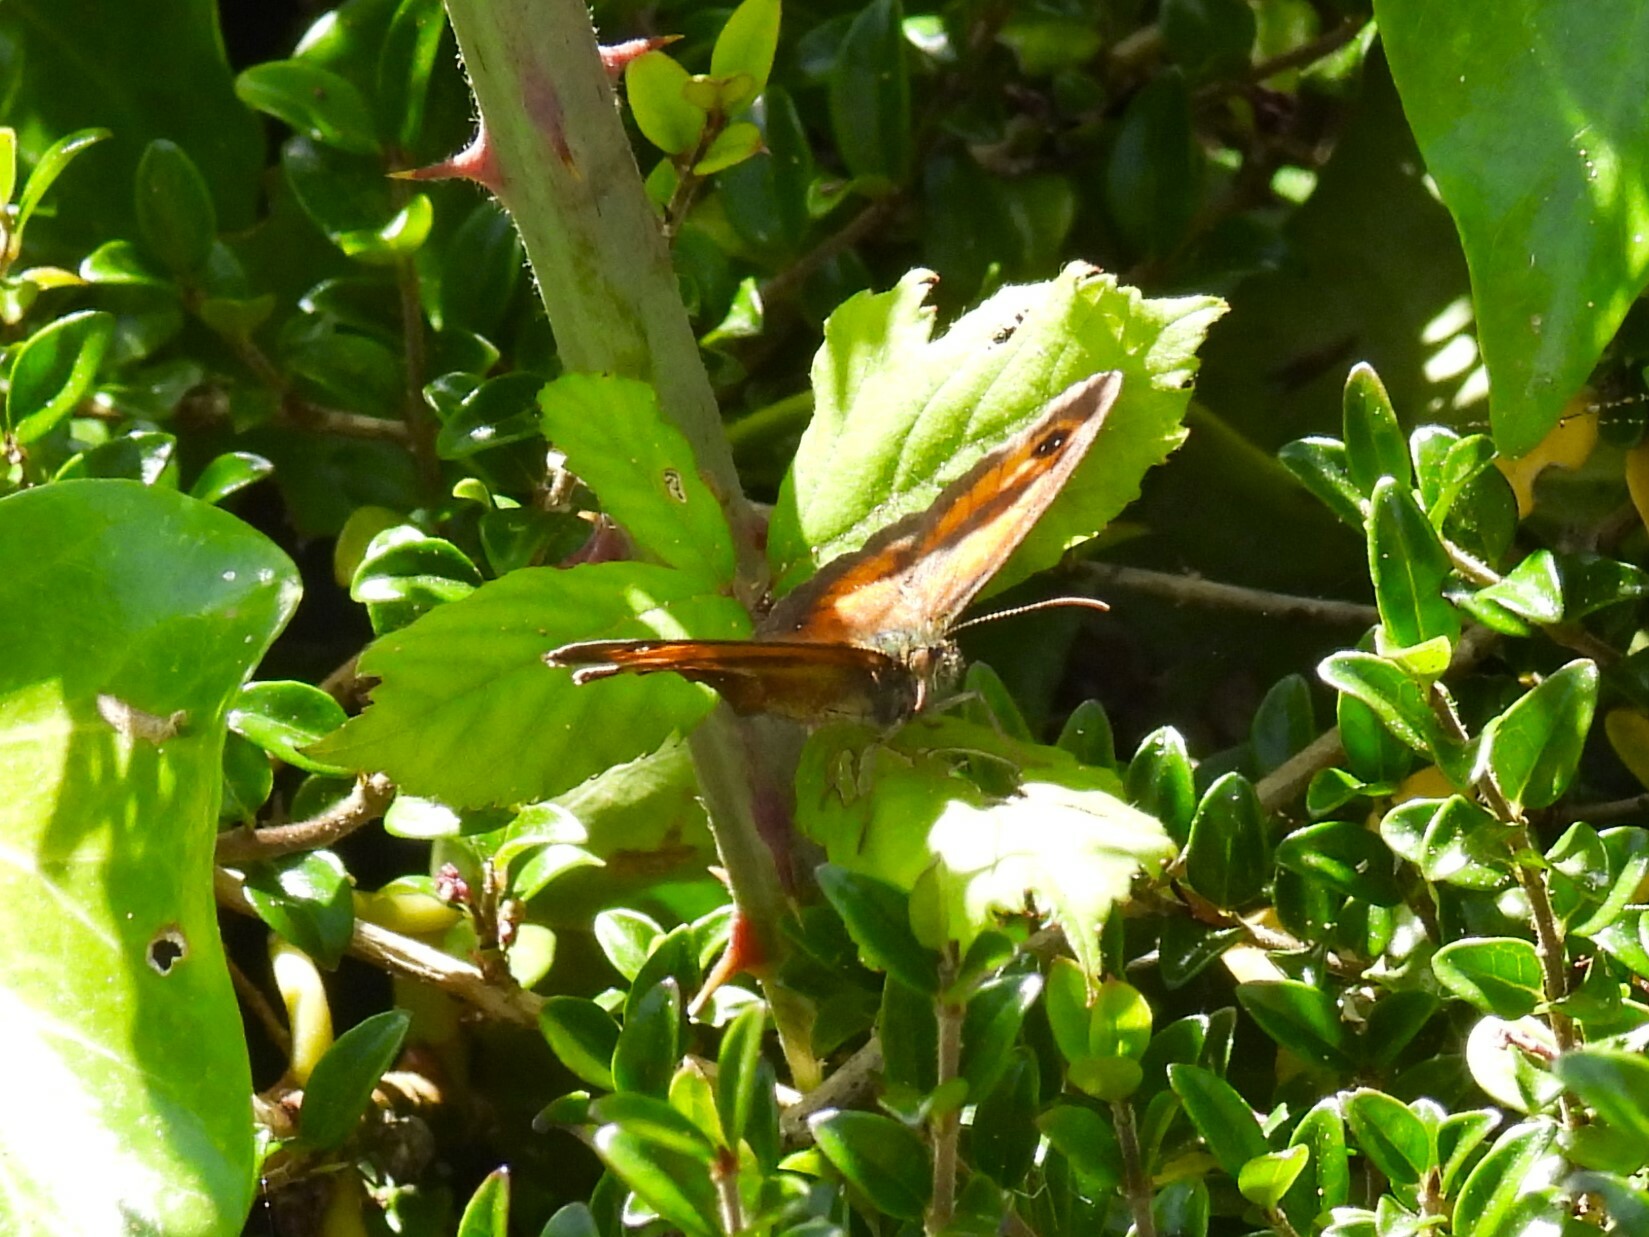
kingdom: Animalia
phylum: Arthropoda
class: Insecta
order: Lepidoptera
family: Nymphalidae
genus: Pyronia
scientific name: Pyronia tithonus
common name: Gatekeeper
